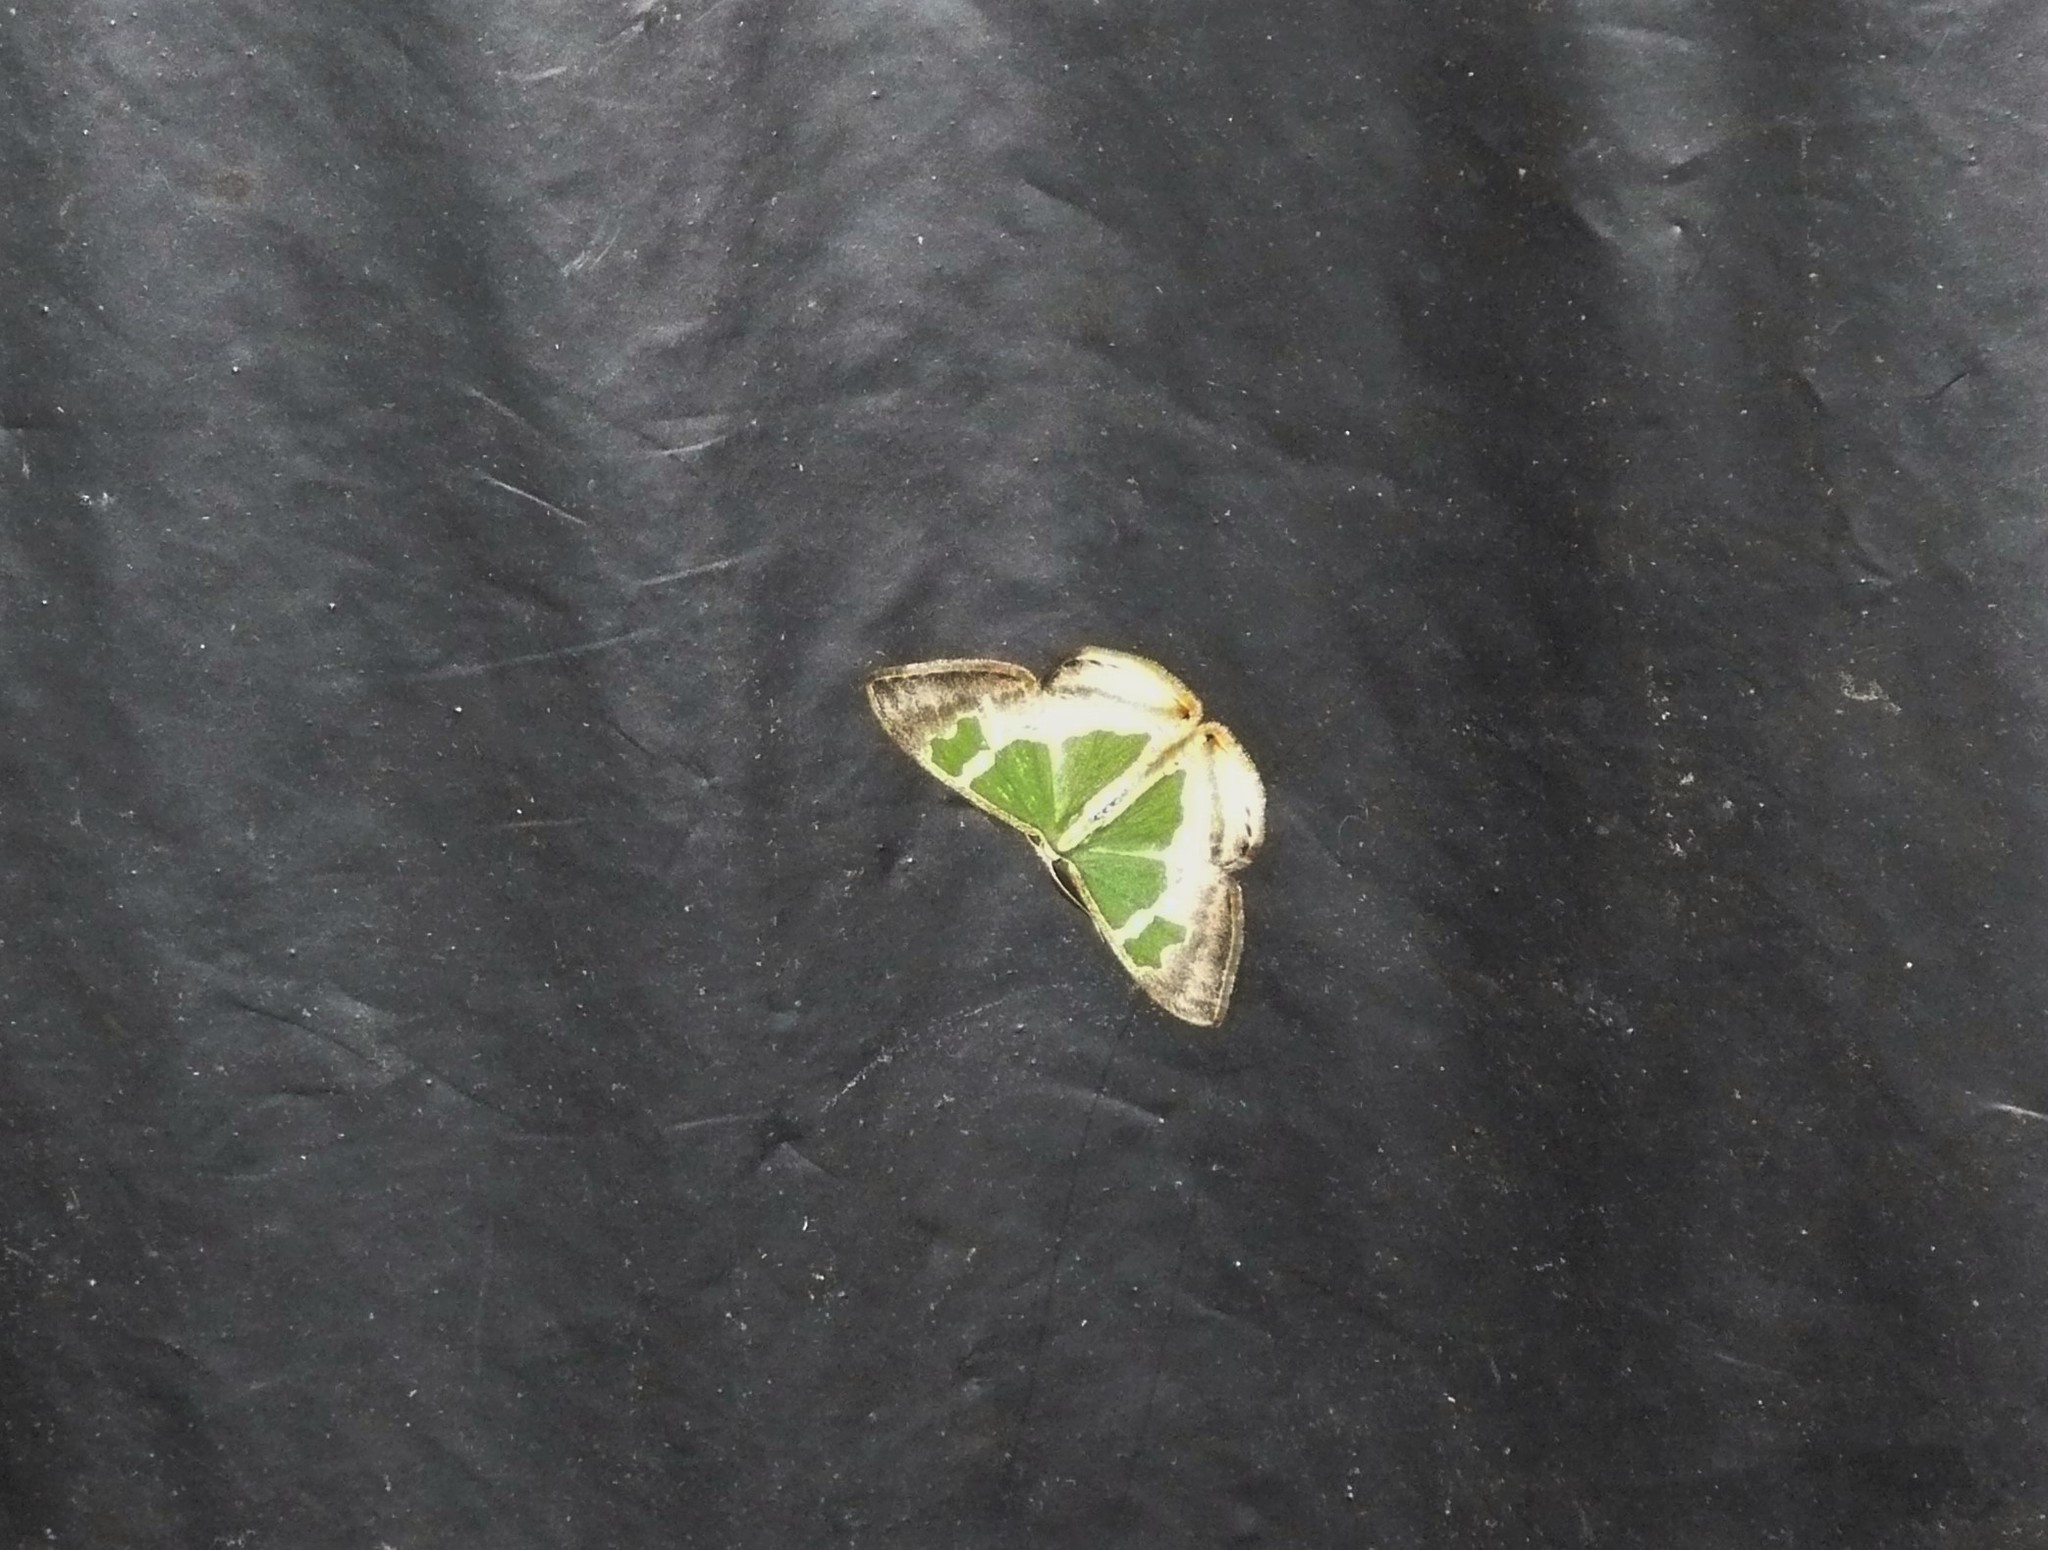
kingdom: Animalia
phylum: Arthropoda
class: Insecta
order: Lepidoptera
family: Geometridae
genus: Oospila
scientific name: Oospila venezuelata
